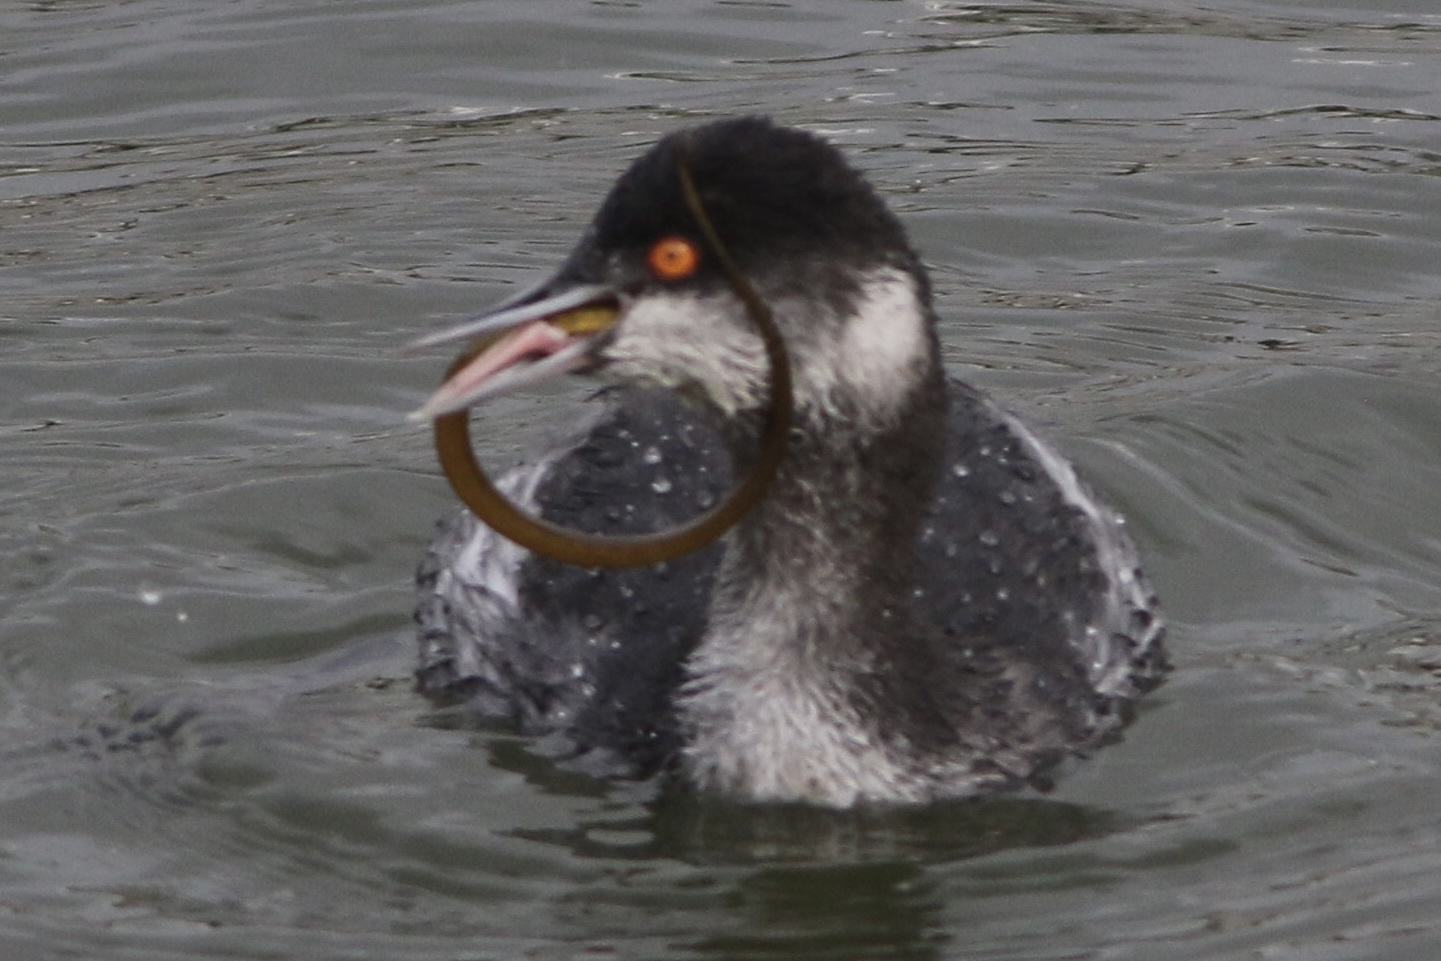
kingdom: Animalia
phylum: Chordata
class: Aves
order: Podicipediformes
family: Podicipedidae
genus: Podiceps
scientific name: Podiceps nigricollis
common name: Black-necked grebe
